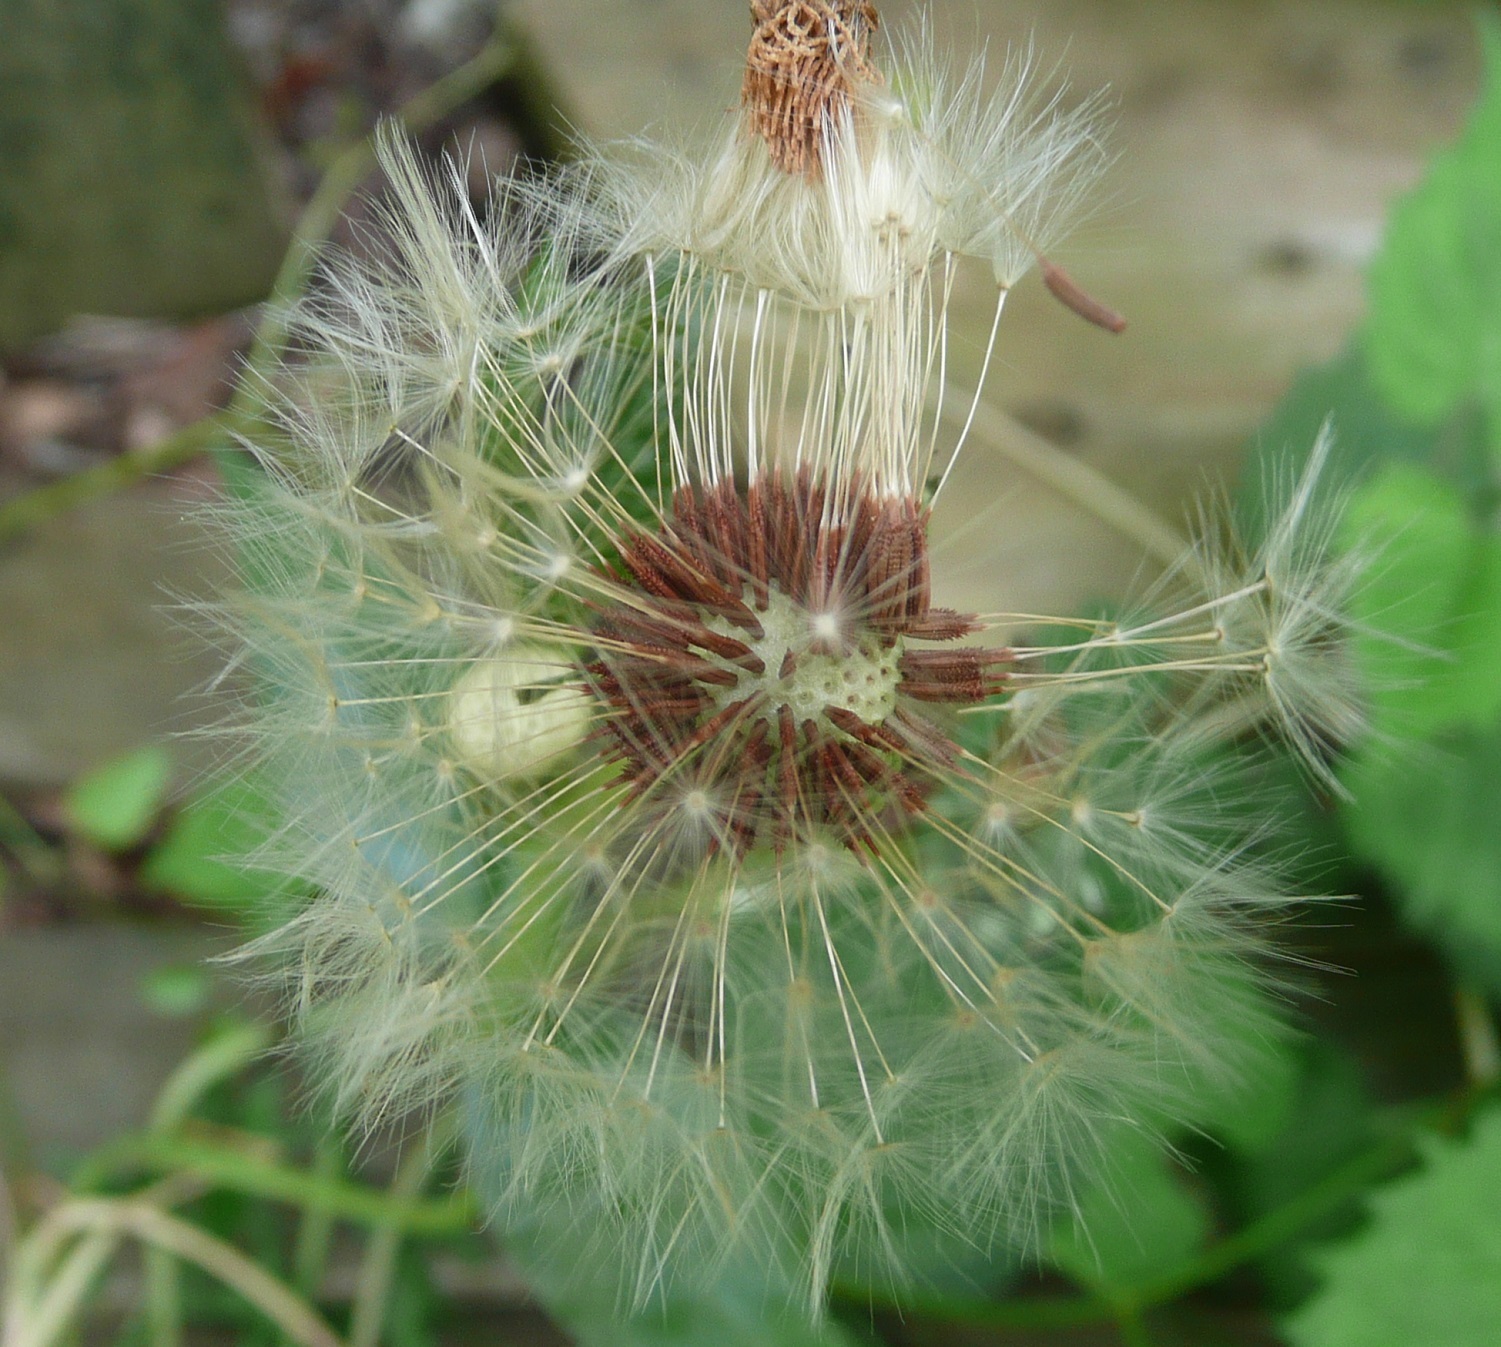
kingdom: Plantae
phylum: Tracheophyta
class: Magnoliopsida
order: Asterales
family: Asteraceae
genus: Taraxacum
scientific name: Taraxacum erythrospermum
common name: Rock dandelion
